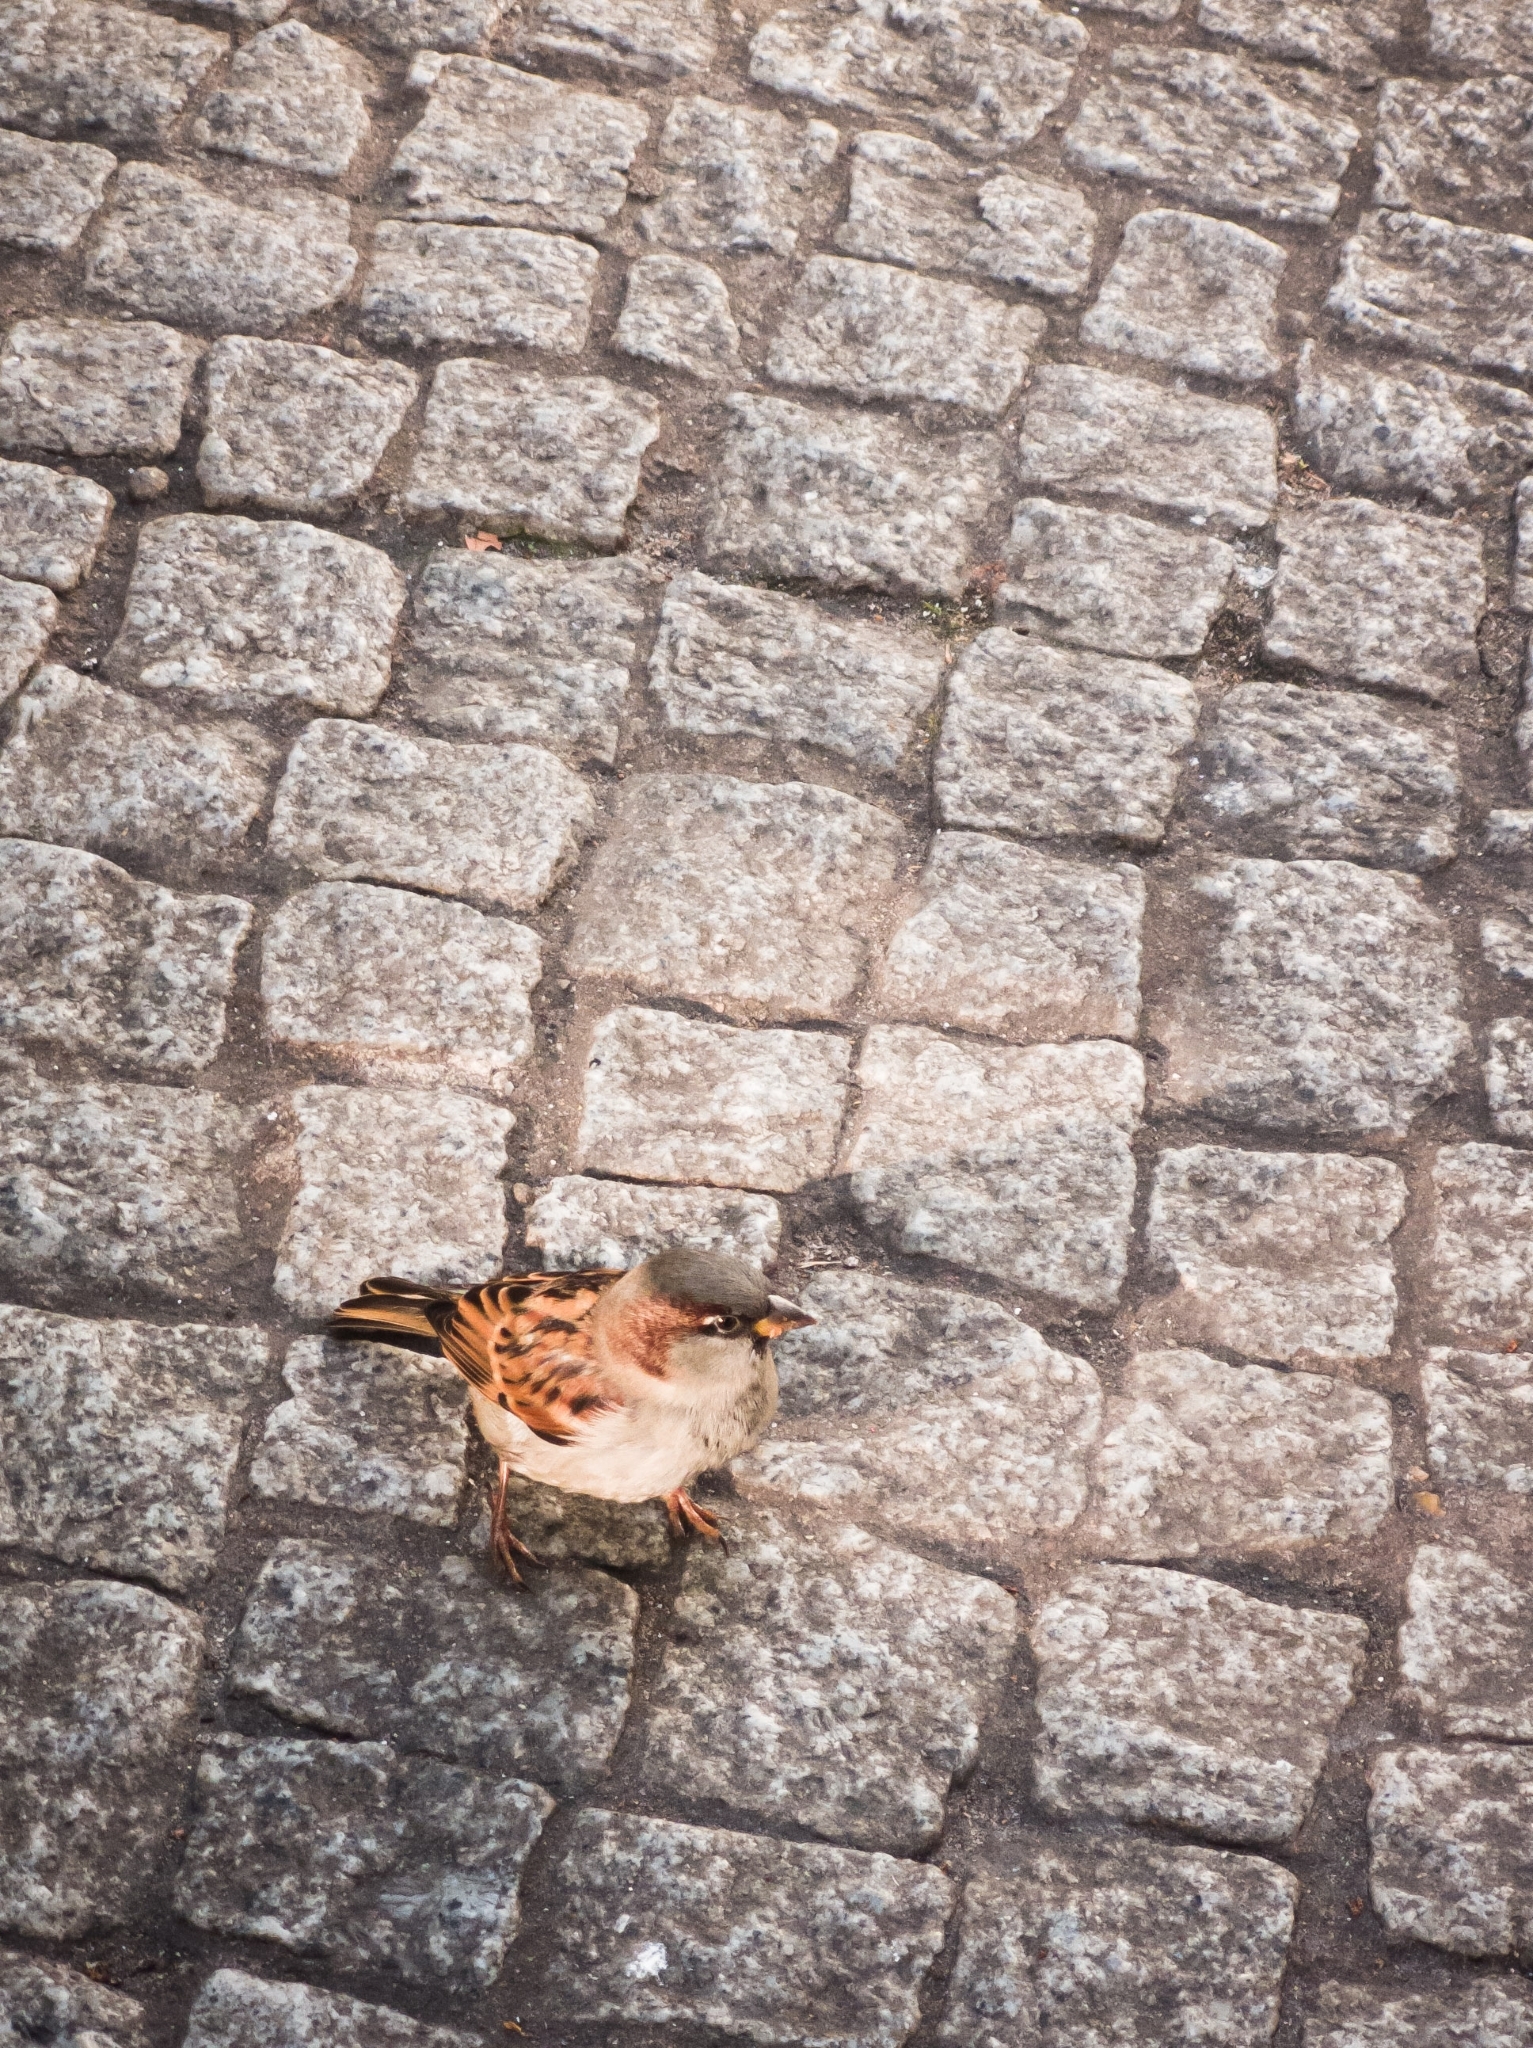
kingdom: Animalia
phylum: Chordata
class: Aves
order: Passeriformes
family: Passeridae
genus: Passer
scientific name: Passer domesticus
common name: House sparrow
